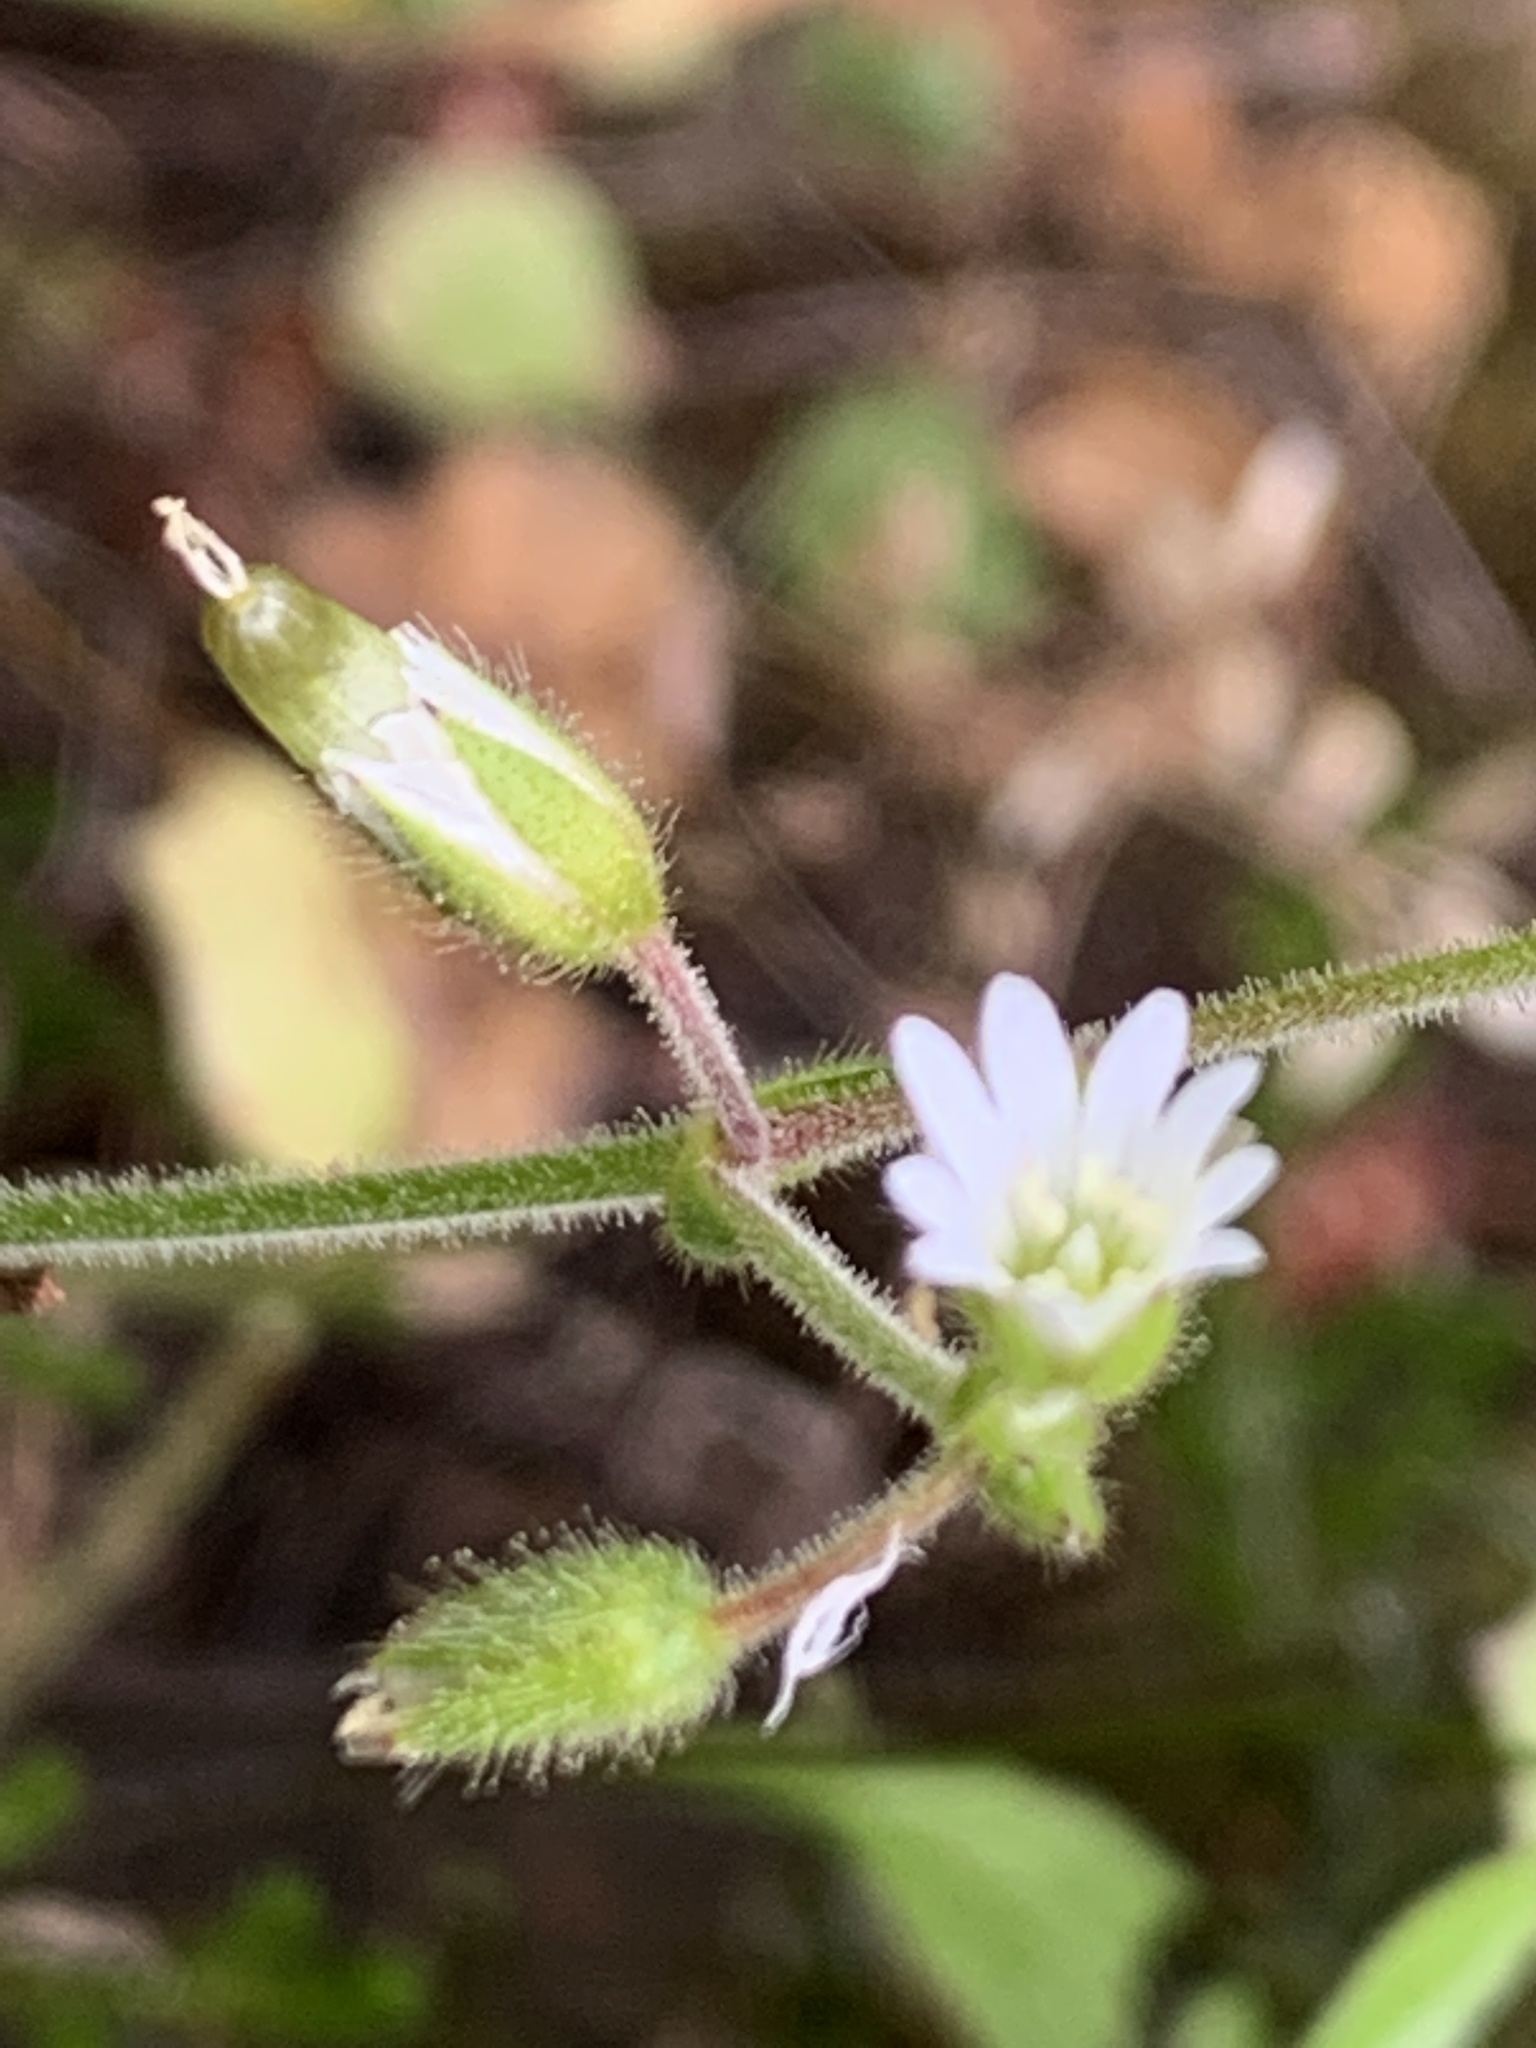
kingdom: Plantae
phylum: Tracheophyta
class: Magnoliopsida
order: Caryophyllales
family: Caryophyllaceae
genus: Cerastium
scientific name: Cerastium fontanum
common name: Common mouse-ear
